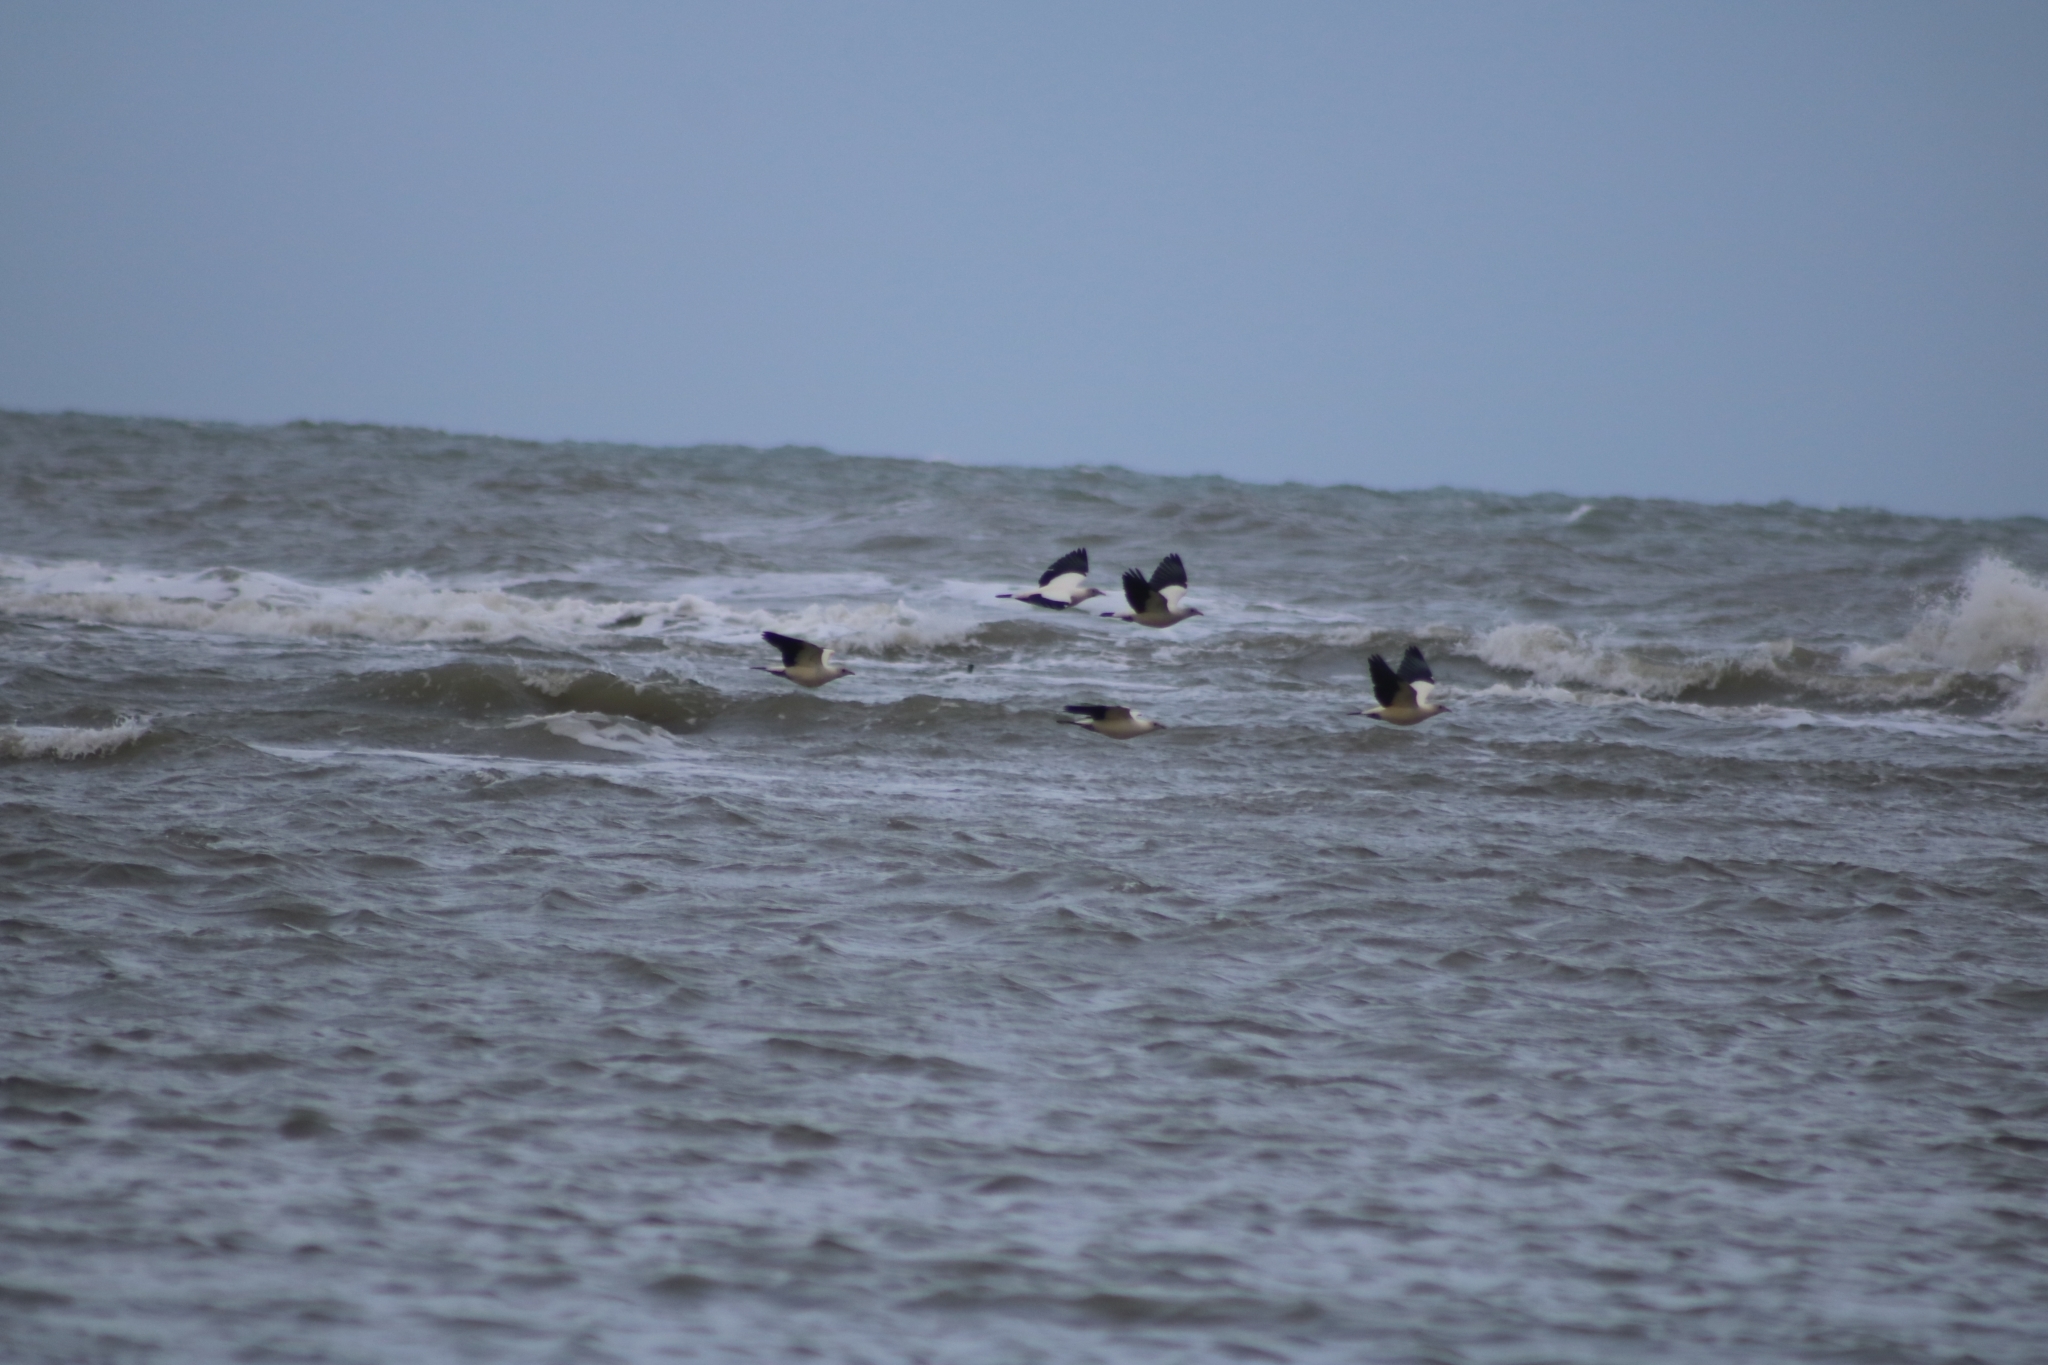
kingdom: Animalia
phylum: Chordata
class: Aves
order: Columbiformes
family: Columbidae
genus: Ducula
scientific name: Ducula spilorrhoa
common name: Torresian imperial pigeon
